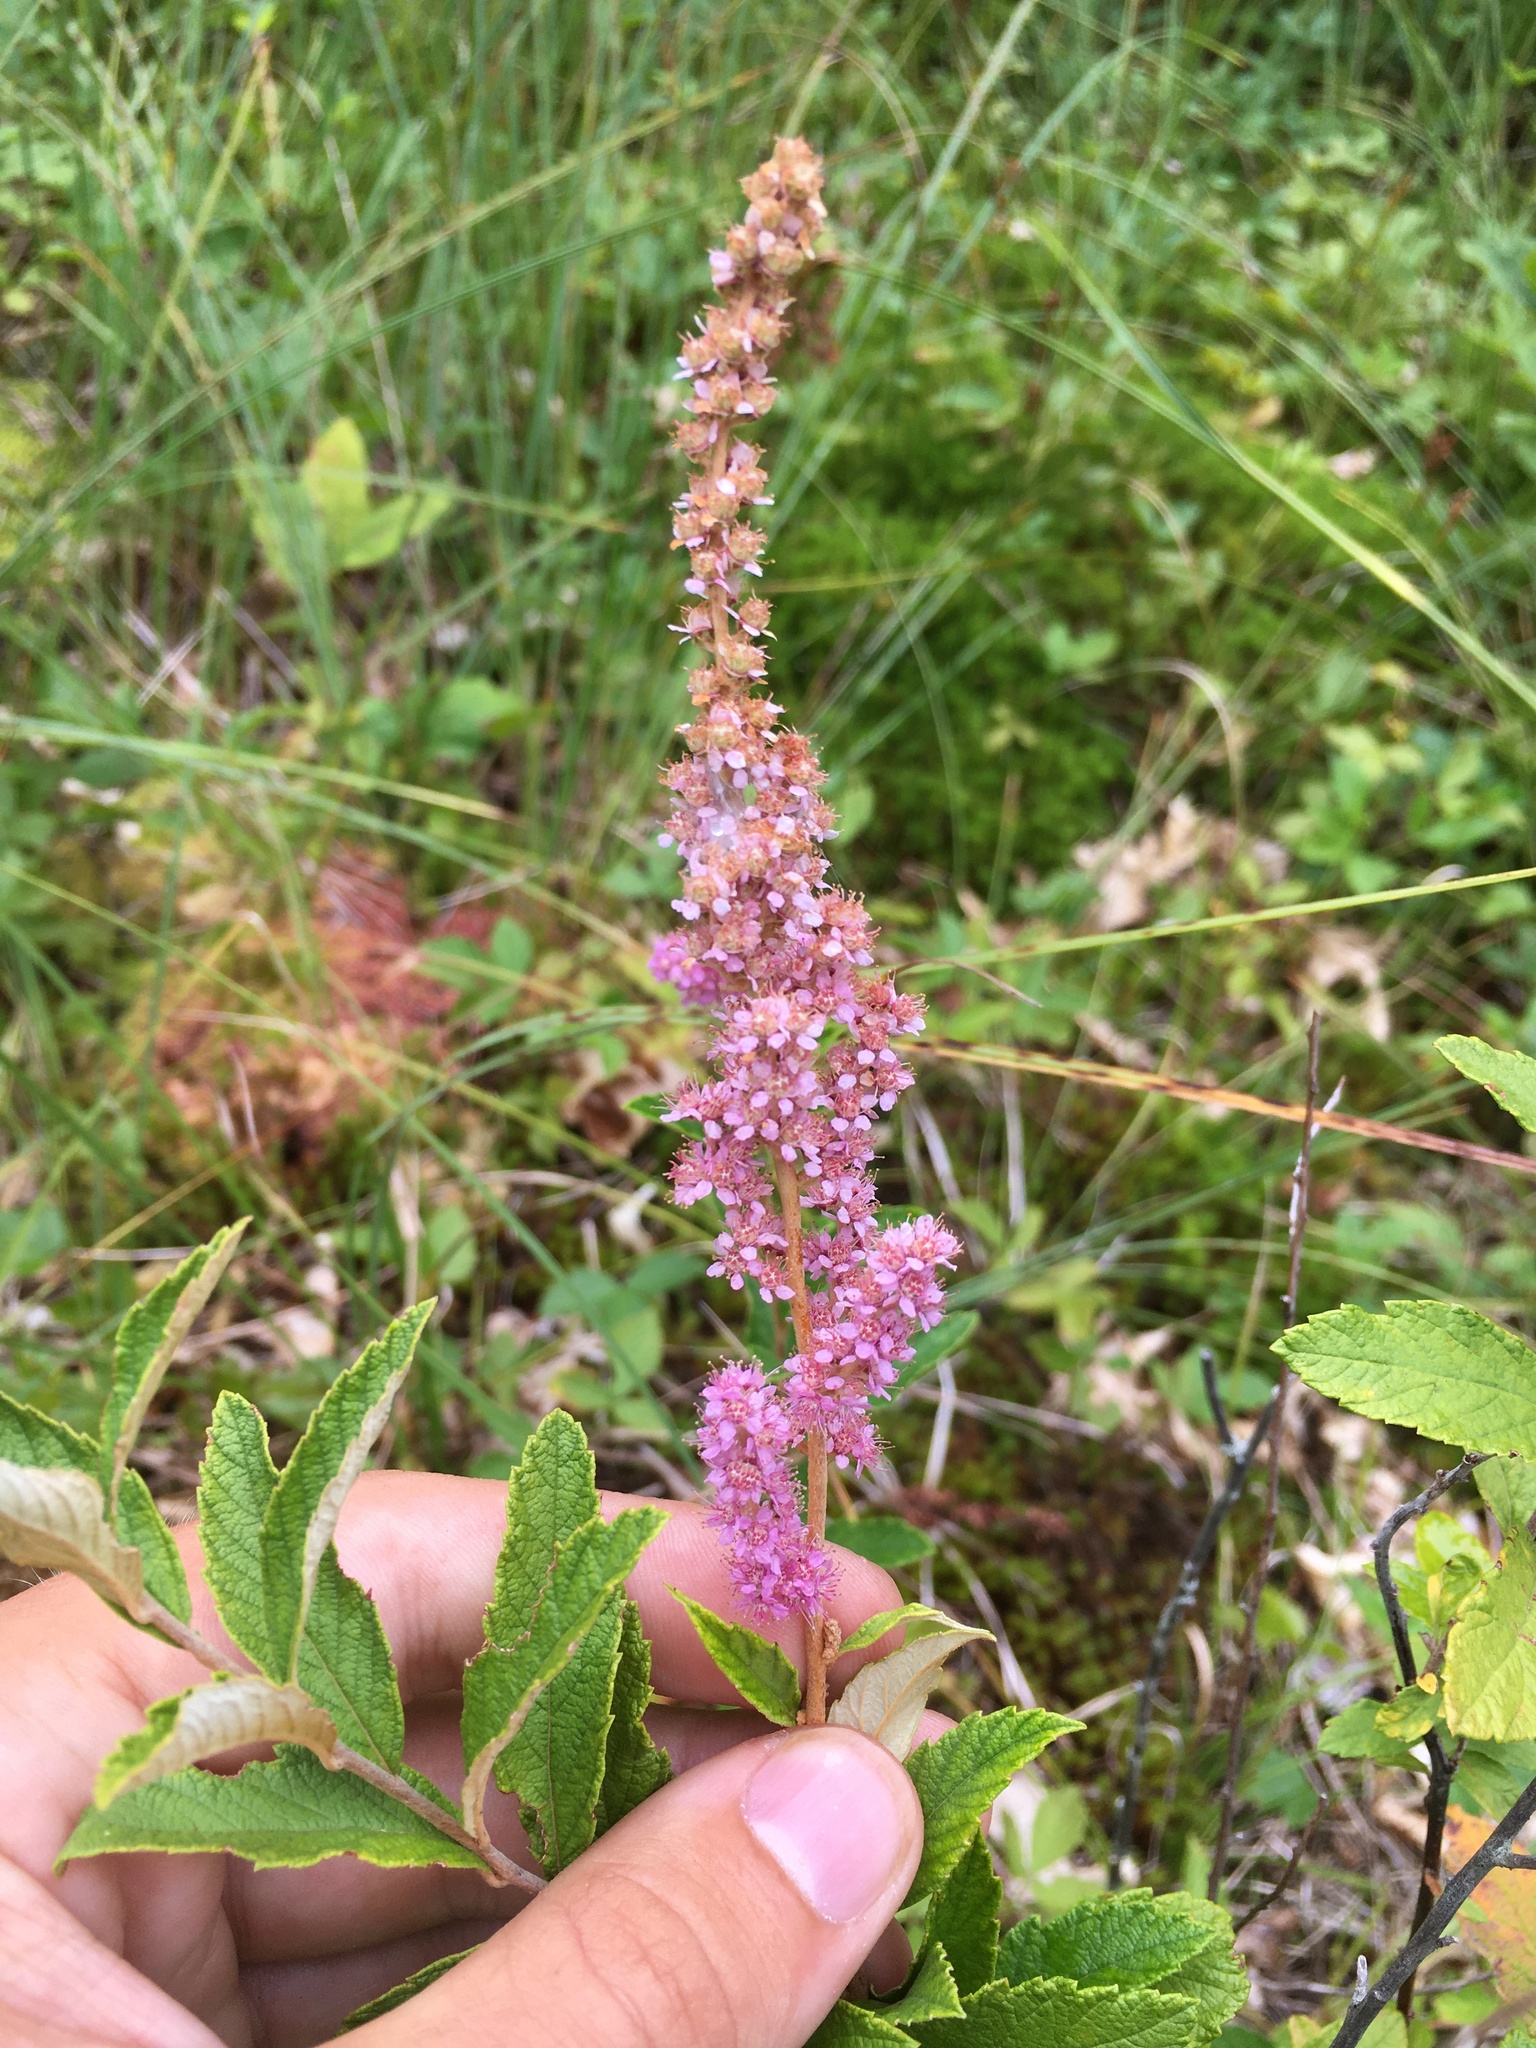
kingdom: Plantae
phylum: Tracheophyta
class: Magnoliopsida
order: Rosales
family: Rosaceae
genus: Spiraea
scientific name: Spiraea tomentosa
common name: Hardhack
